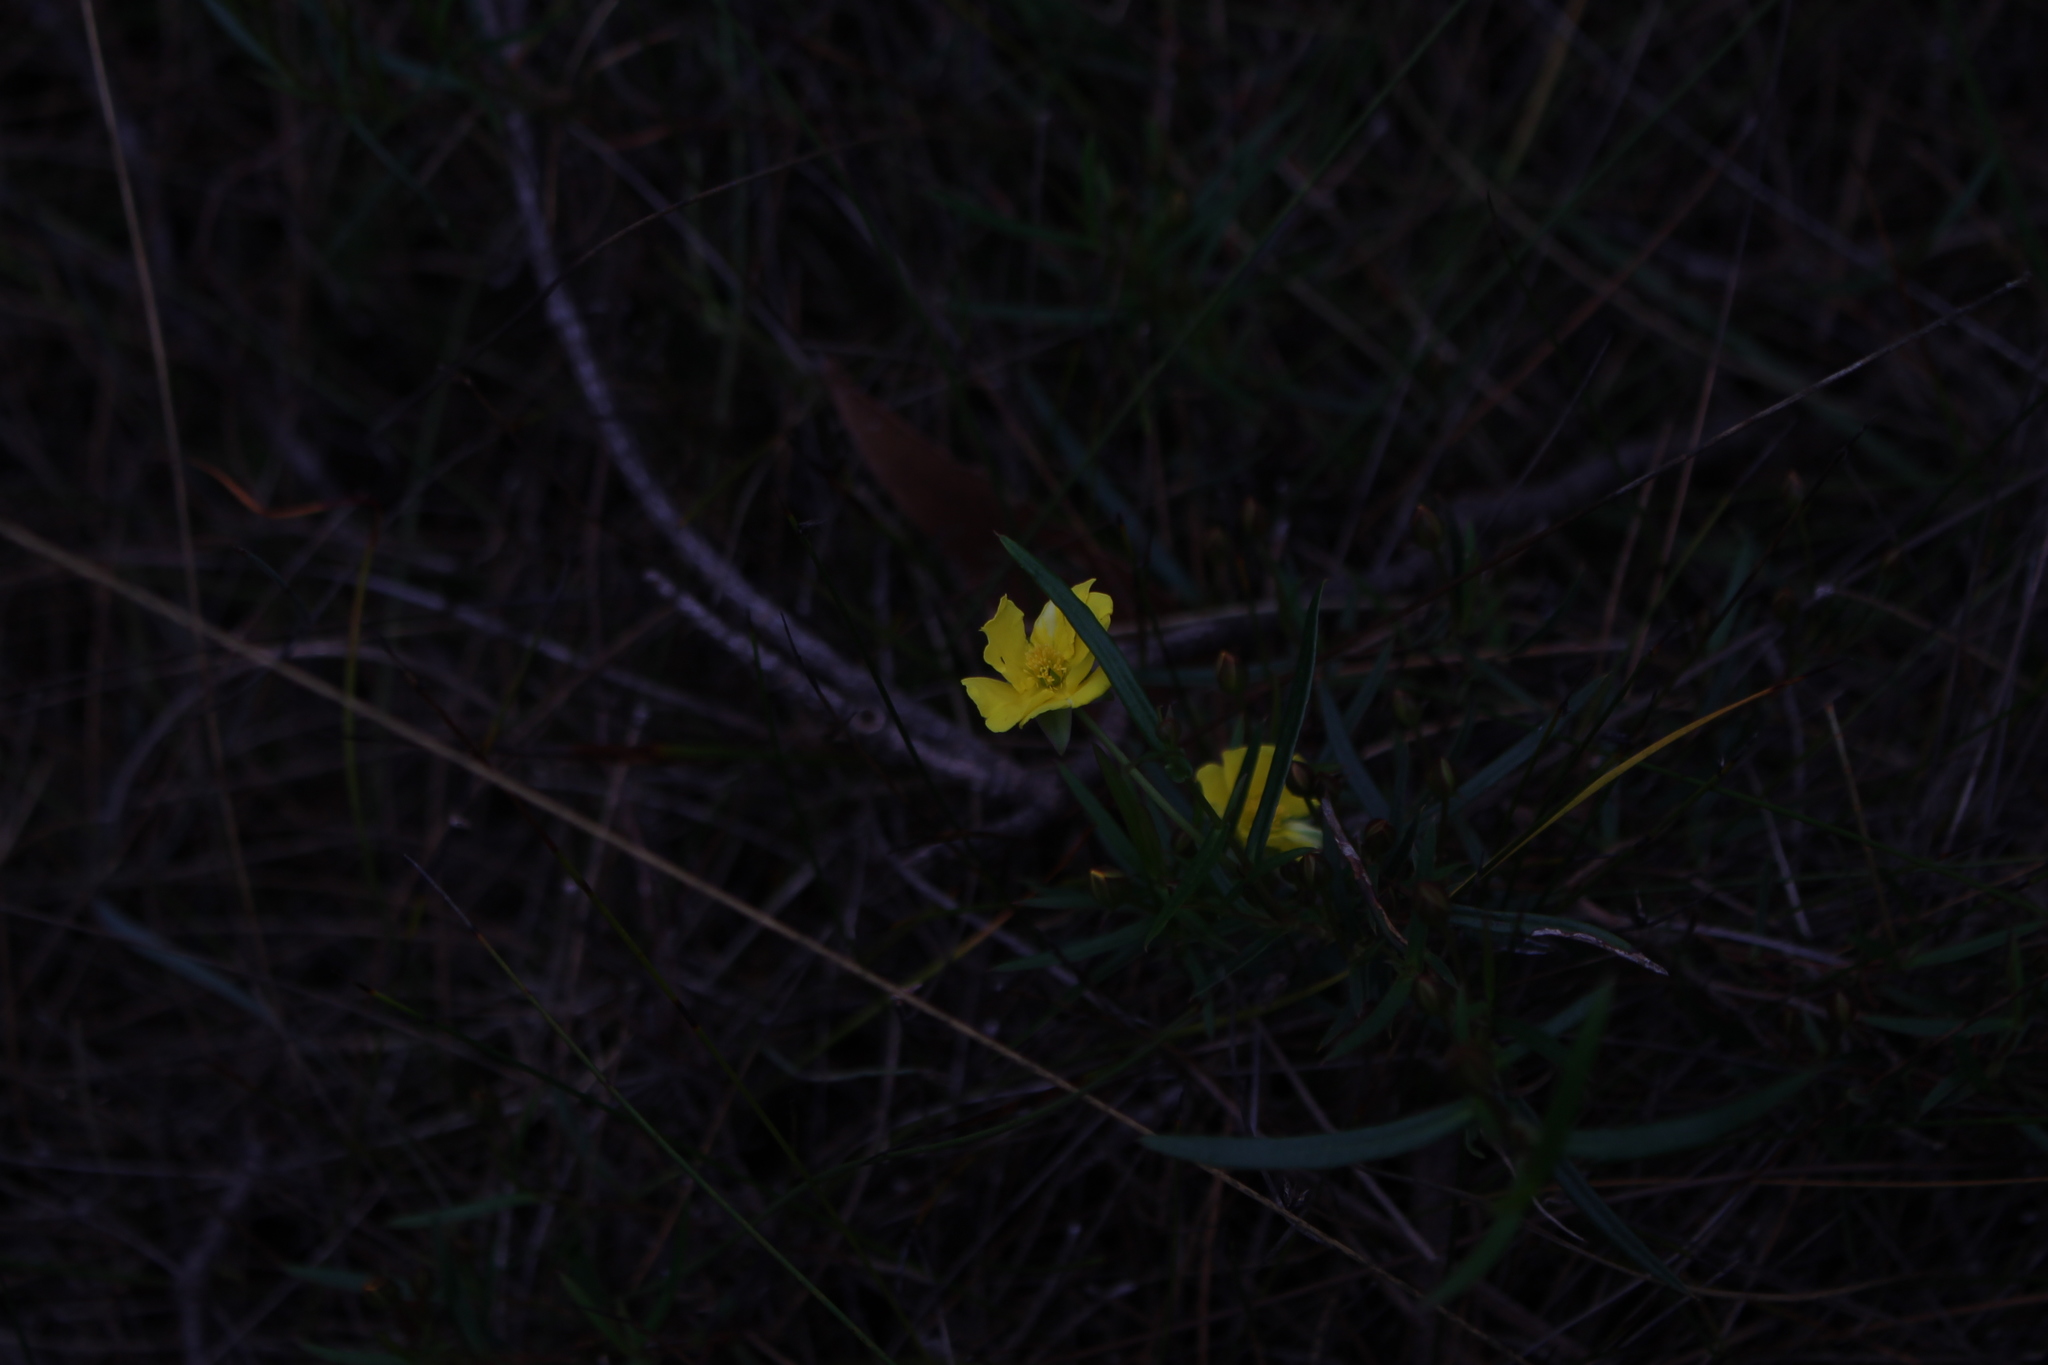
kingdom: Plantae
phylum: Tracheophyta
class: Magnoliopsida
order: Dilleniales
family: Dilleniaceae
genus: Hibbertia
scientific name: Hibbertia cunninghamii
